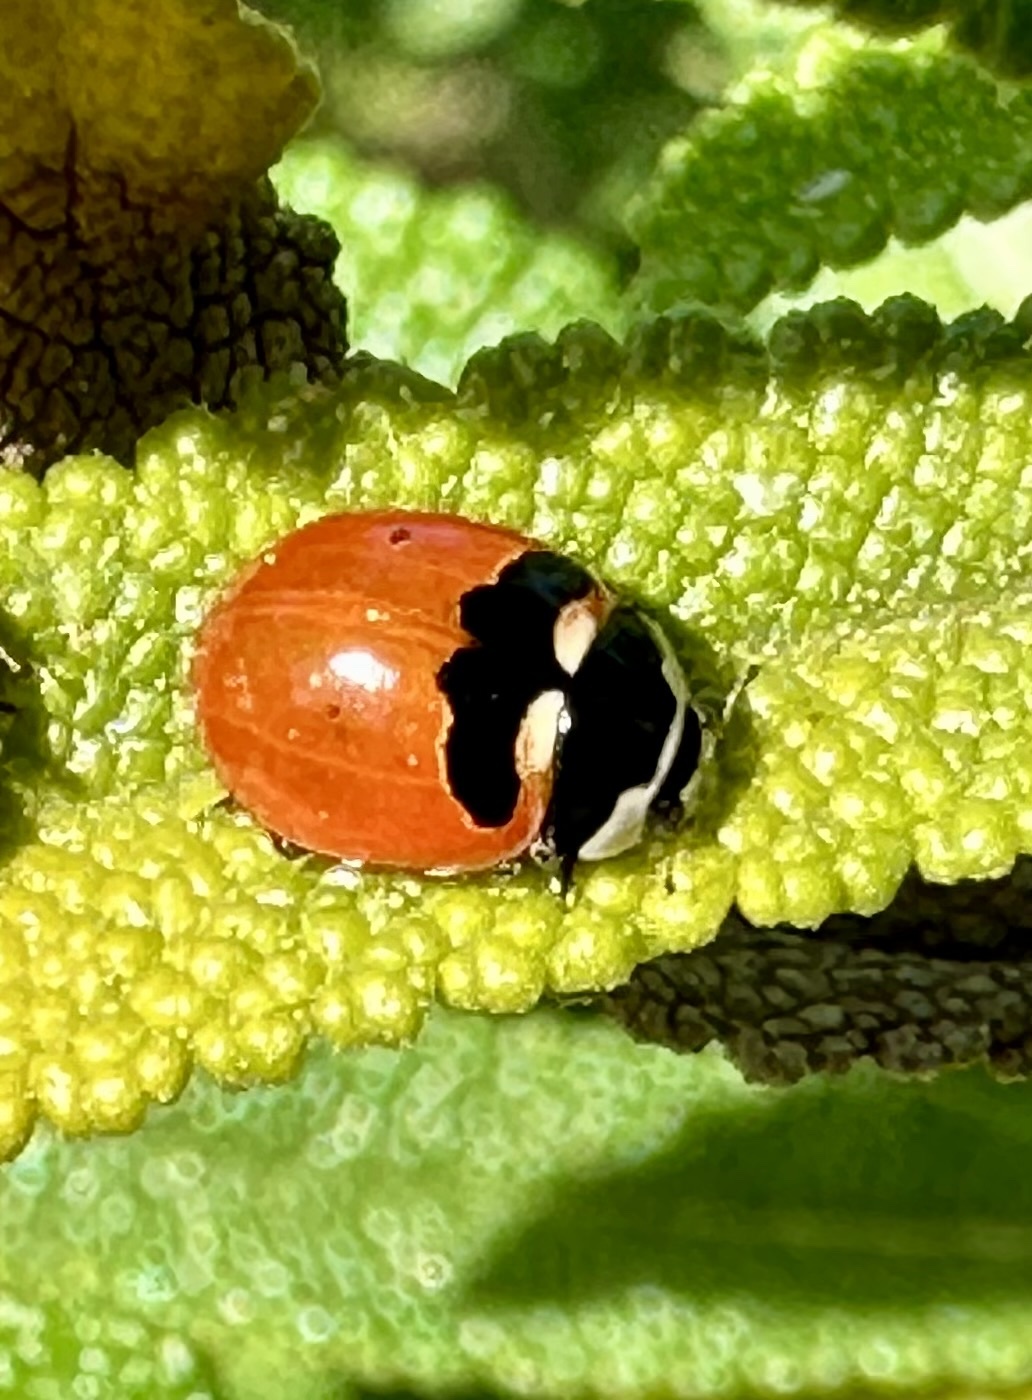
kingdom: Animalia
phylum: Arthropoda
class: Insecta
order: Coleoptera
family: Coccinellidae
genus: Coccinella
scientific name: Coccinella trifasciata
